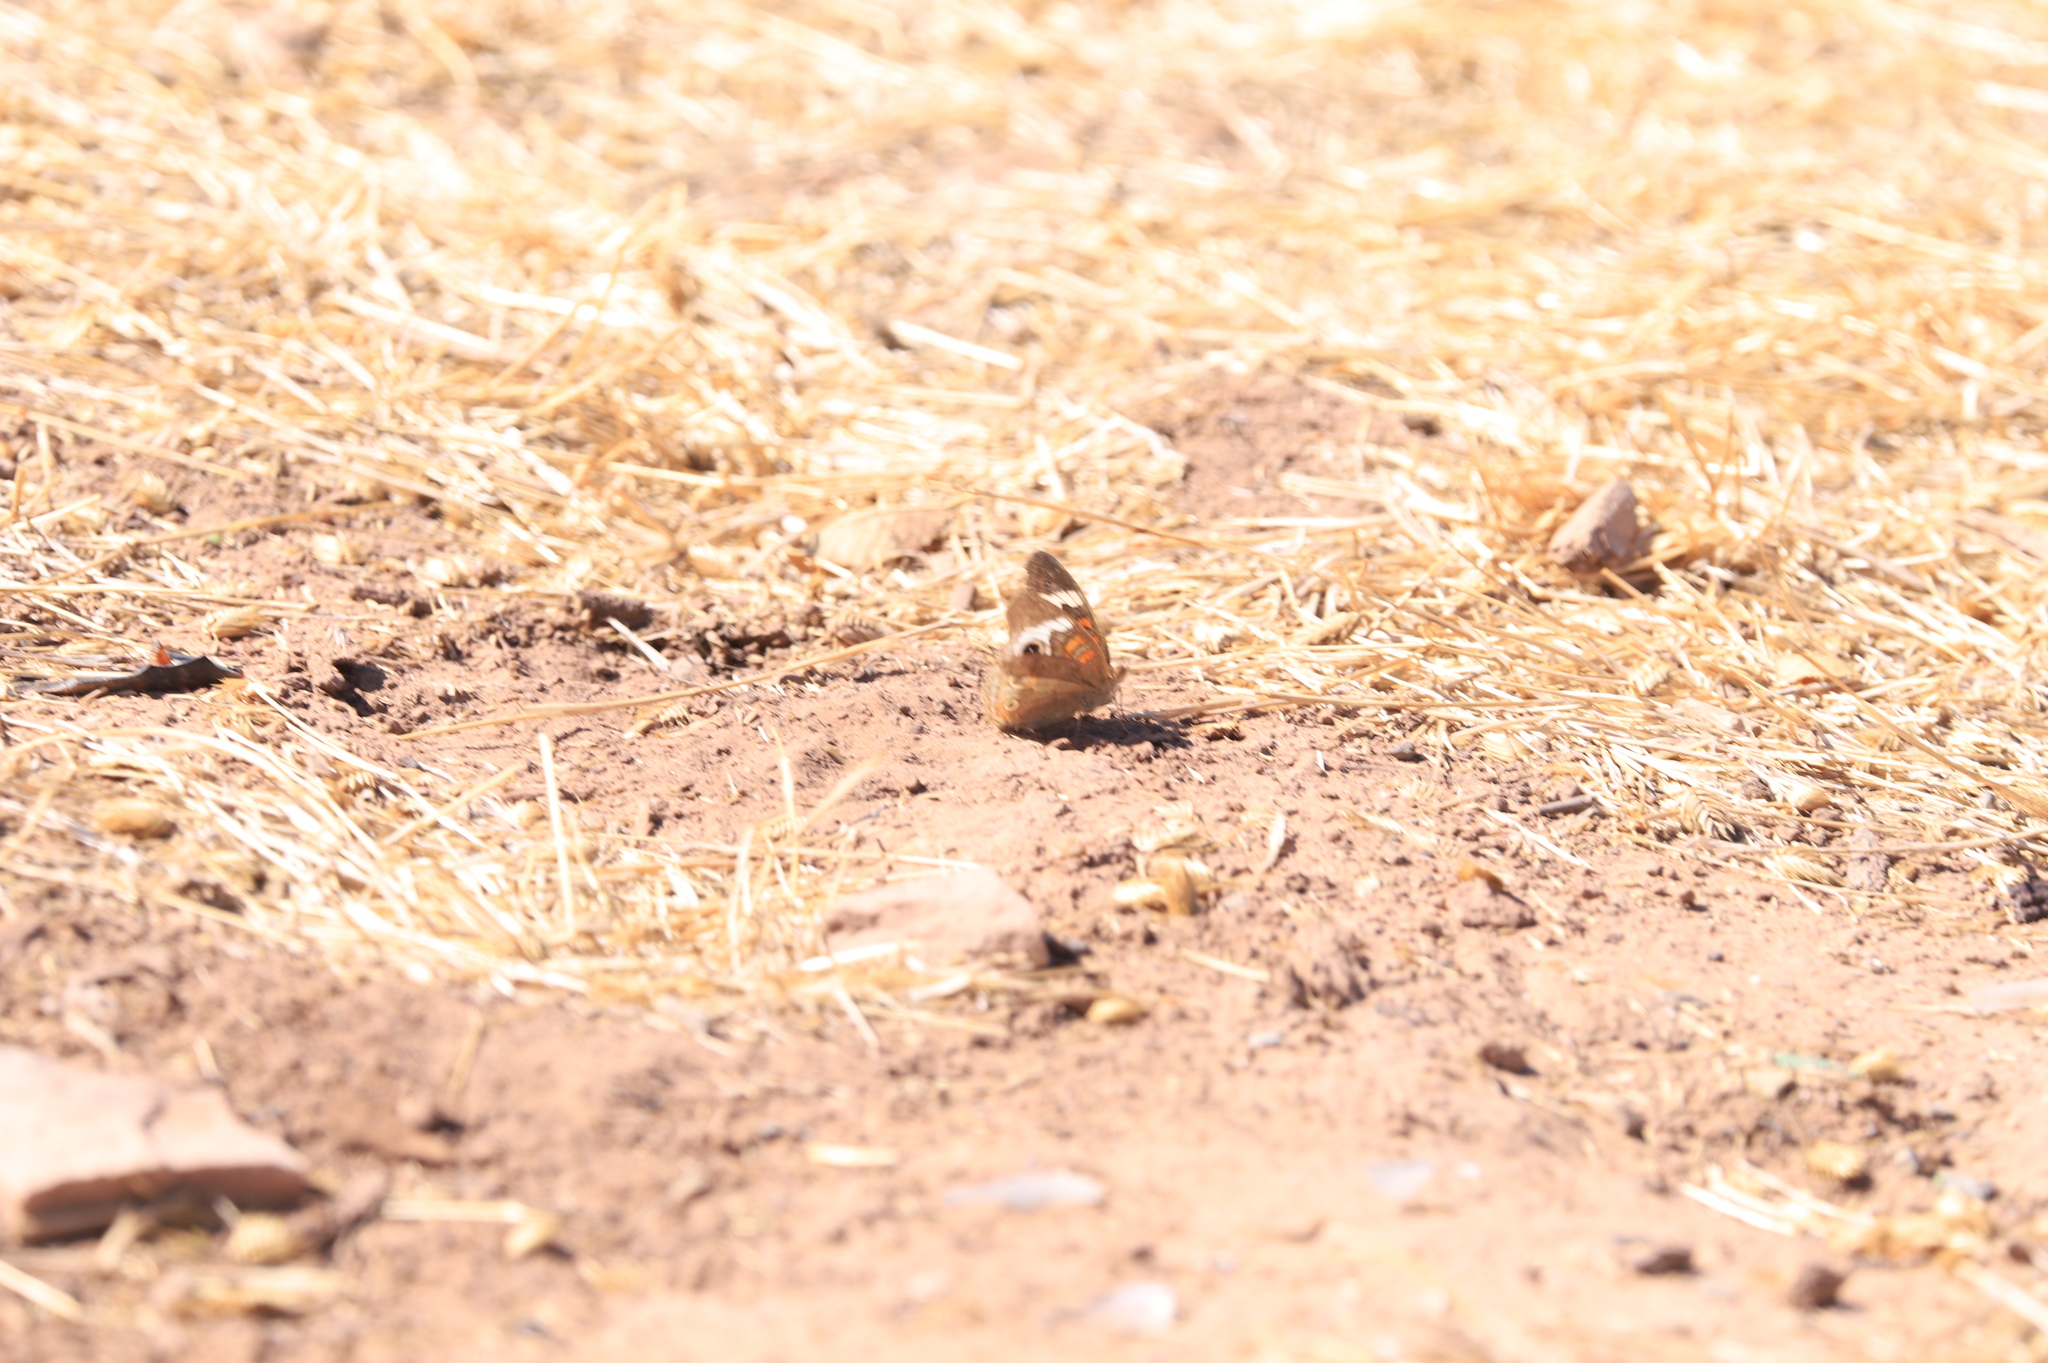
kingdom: Animalia
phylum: Arthropoda
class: Insecta
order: Lepidoptera
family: Nymphalidae
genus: Junonia
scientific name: Junonia grisea
